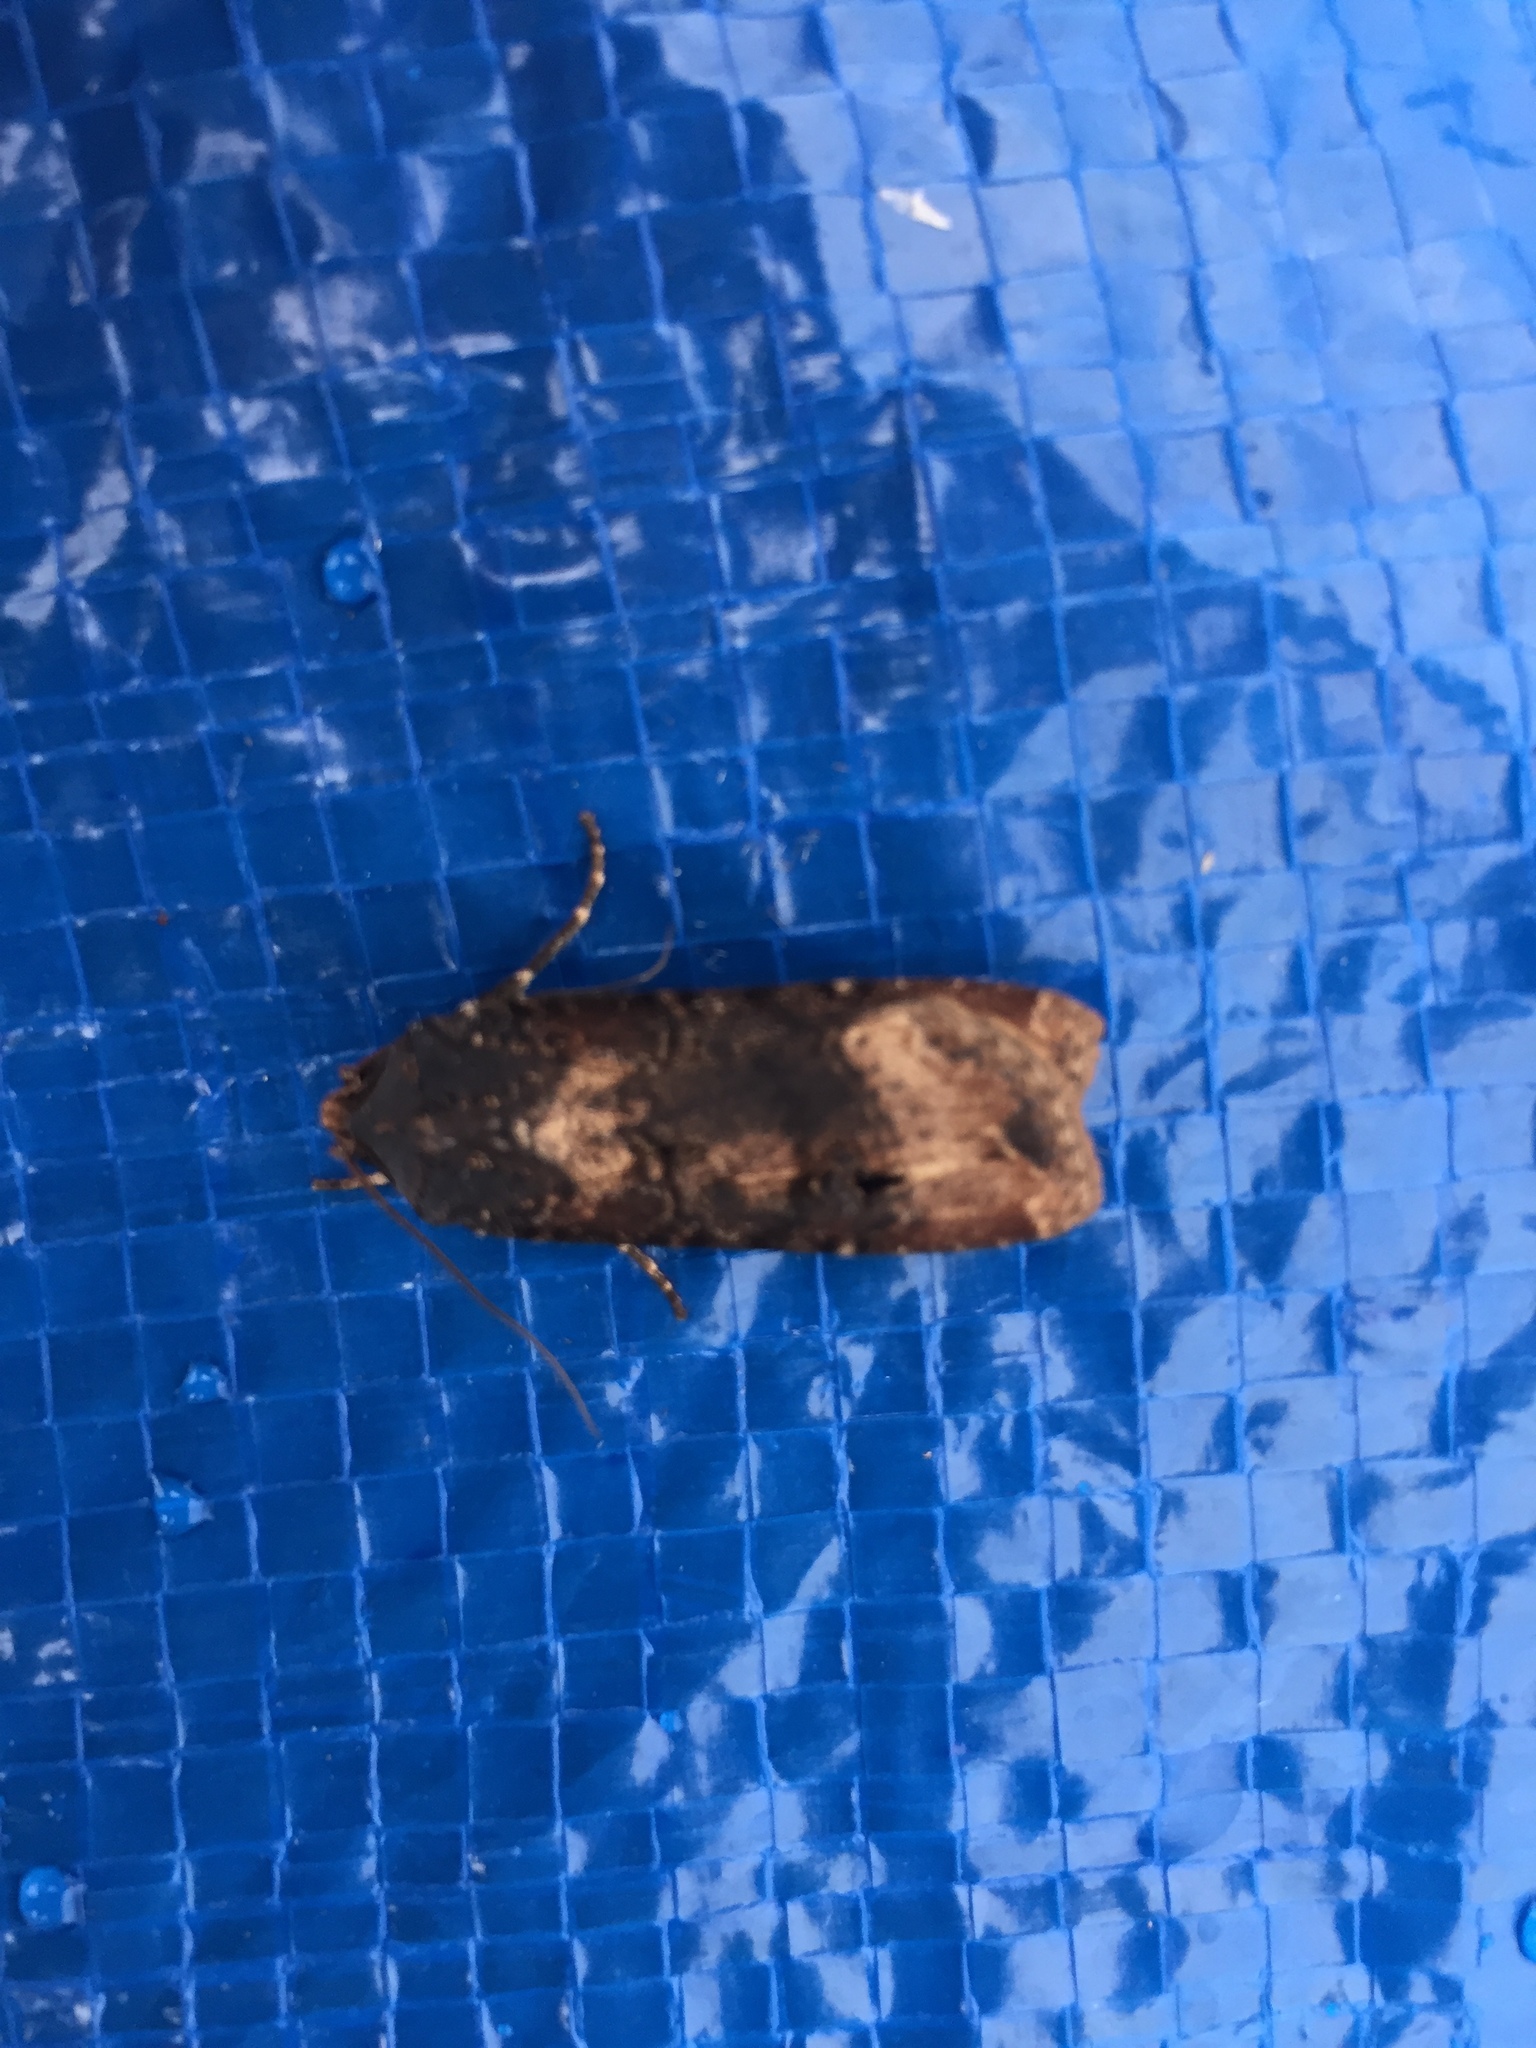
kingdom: Animalia
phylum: Arthropoda
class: Insecta
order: Lepidoptera
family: Noctuidae
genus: Agrotis
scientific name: Agrotis ipsilon
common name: Dark sword-grass
